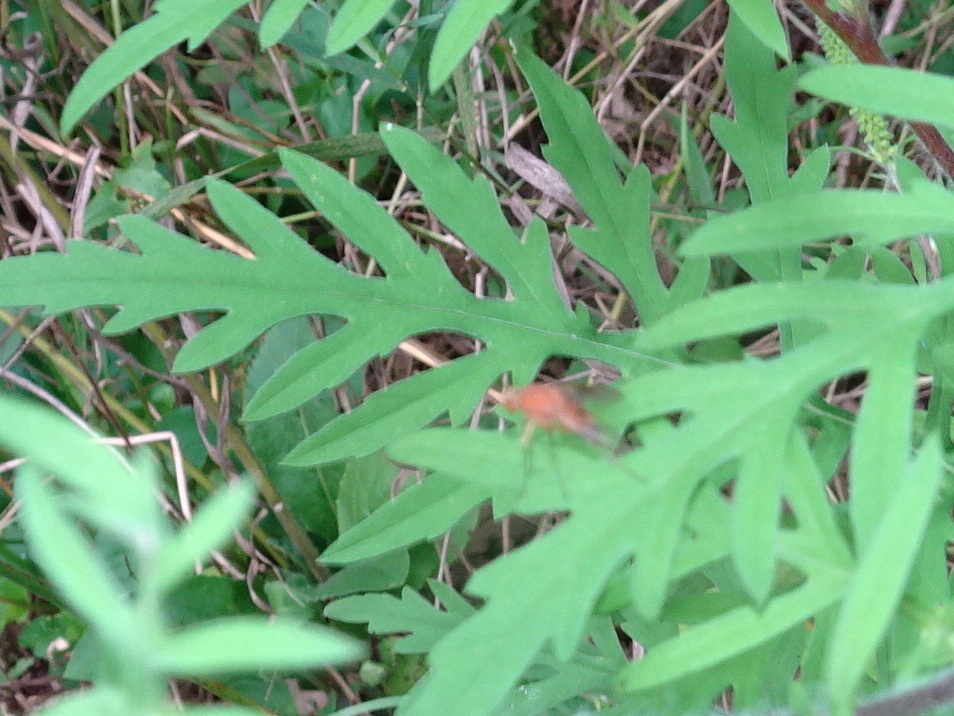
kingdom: Animalia
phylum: Arthropoda
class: Insecta
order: Diptera
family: Rhagionidae
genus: Chrysopilus
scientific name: Chrysopilus quadratus
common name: Quadrate snipe fly
